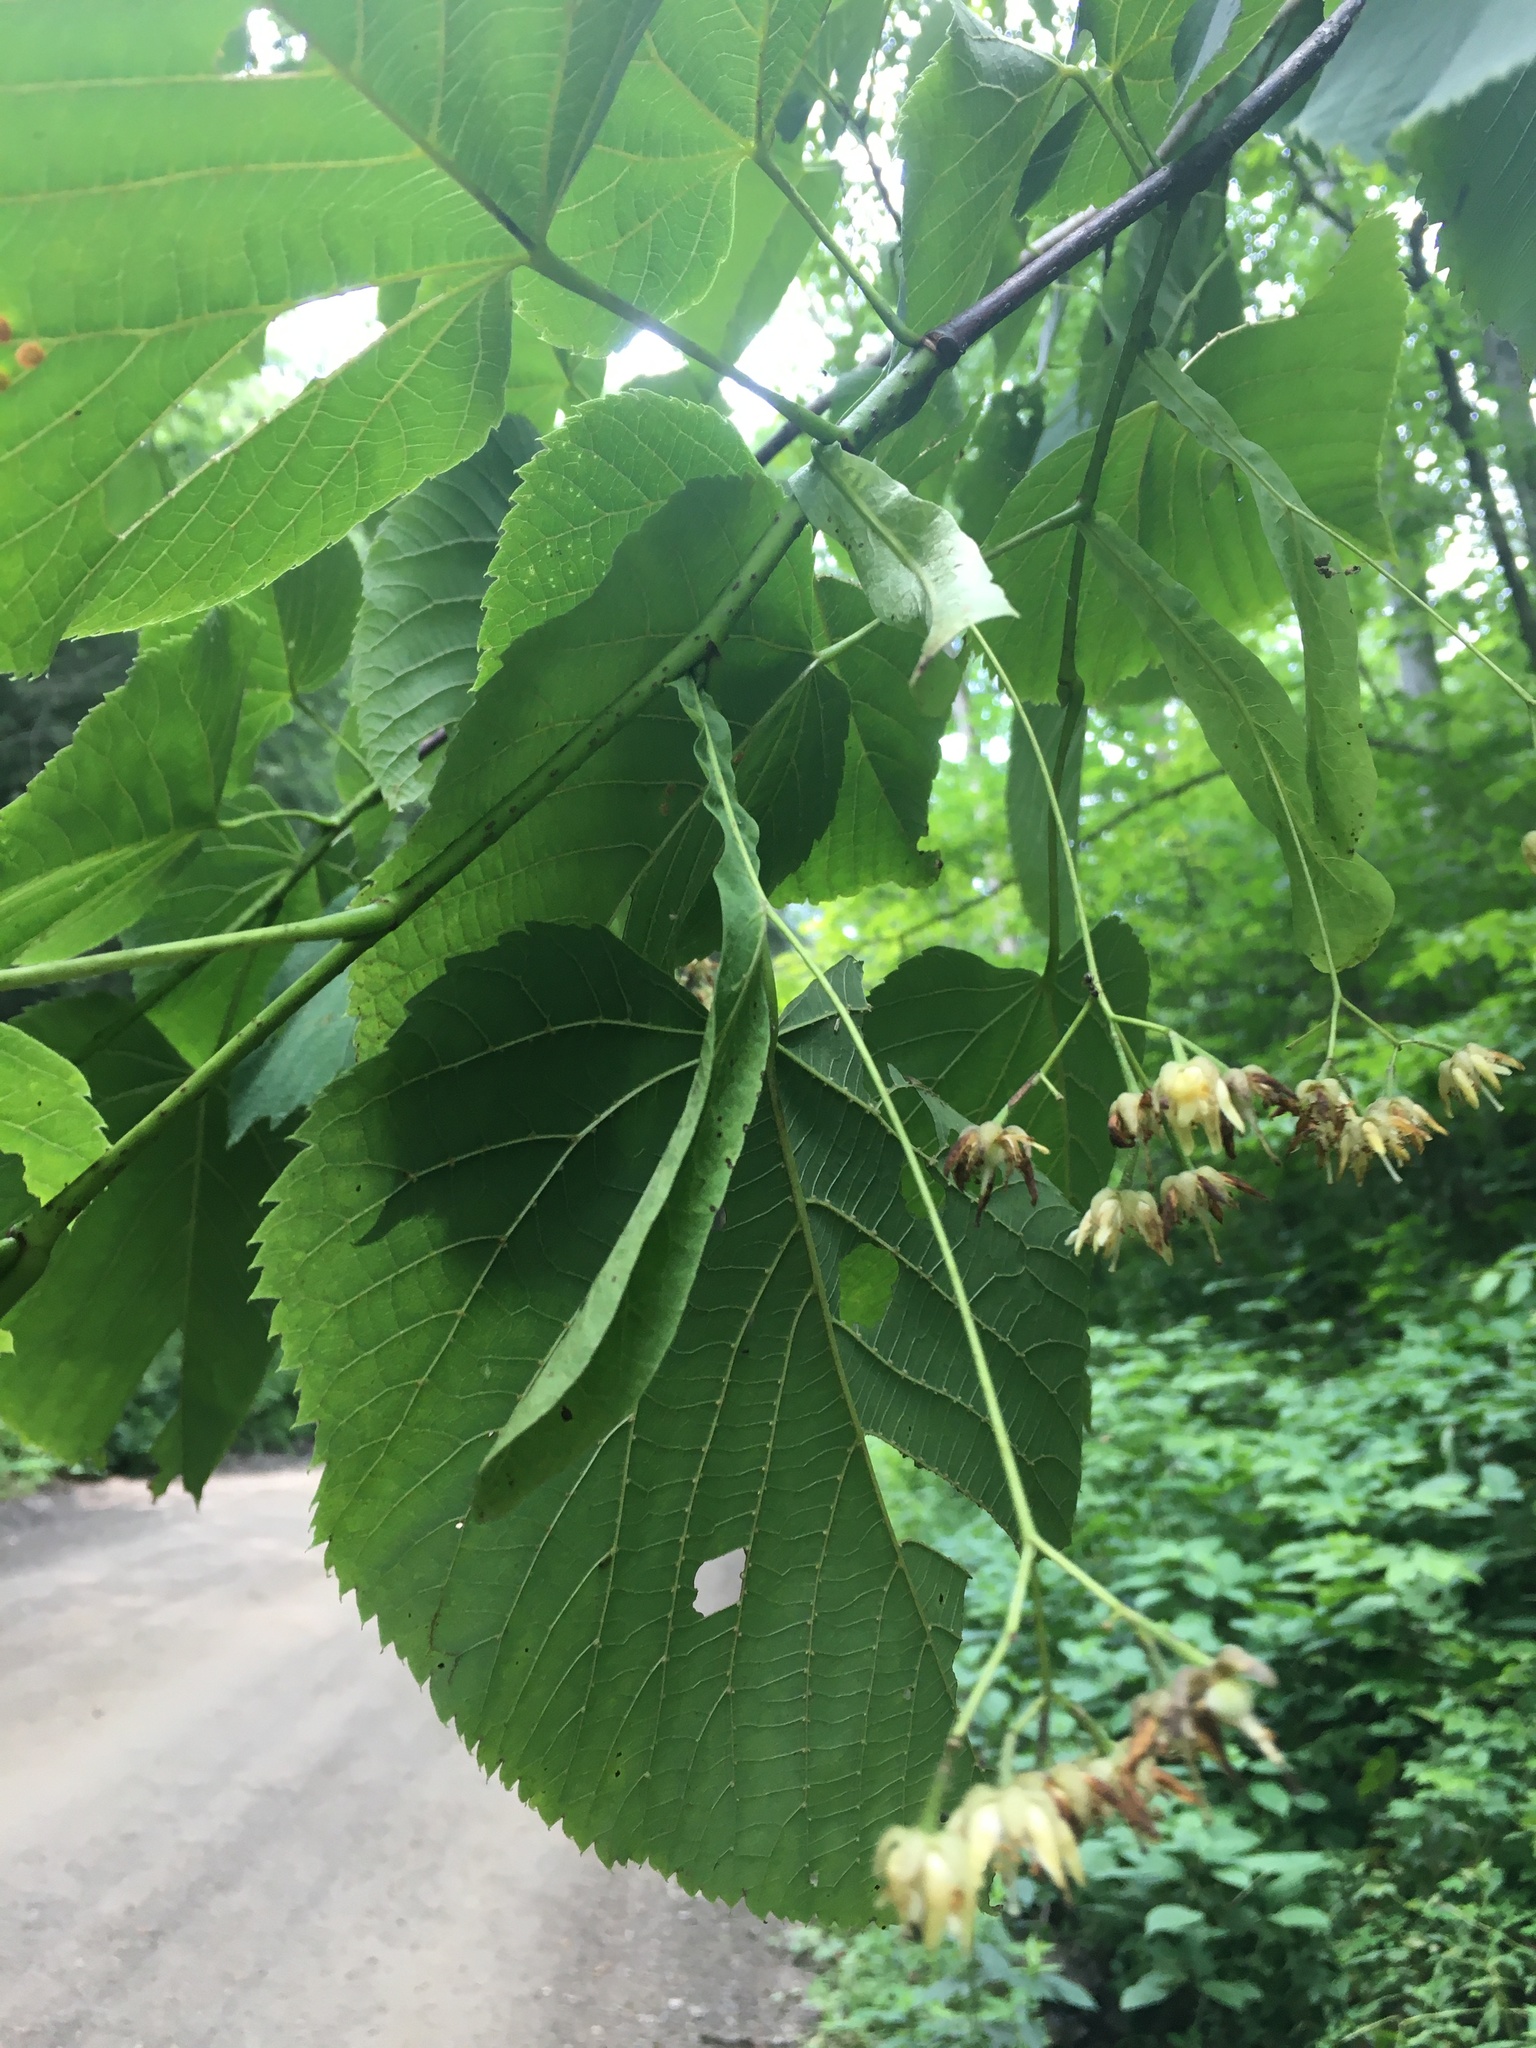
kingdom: Plantae
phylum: Tracheophyta
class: Magnoliopsida
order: Malvales
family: Malvaceae
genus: Tilia
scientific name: Tilia americana
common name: Basswood
